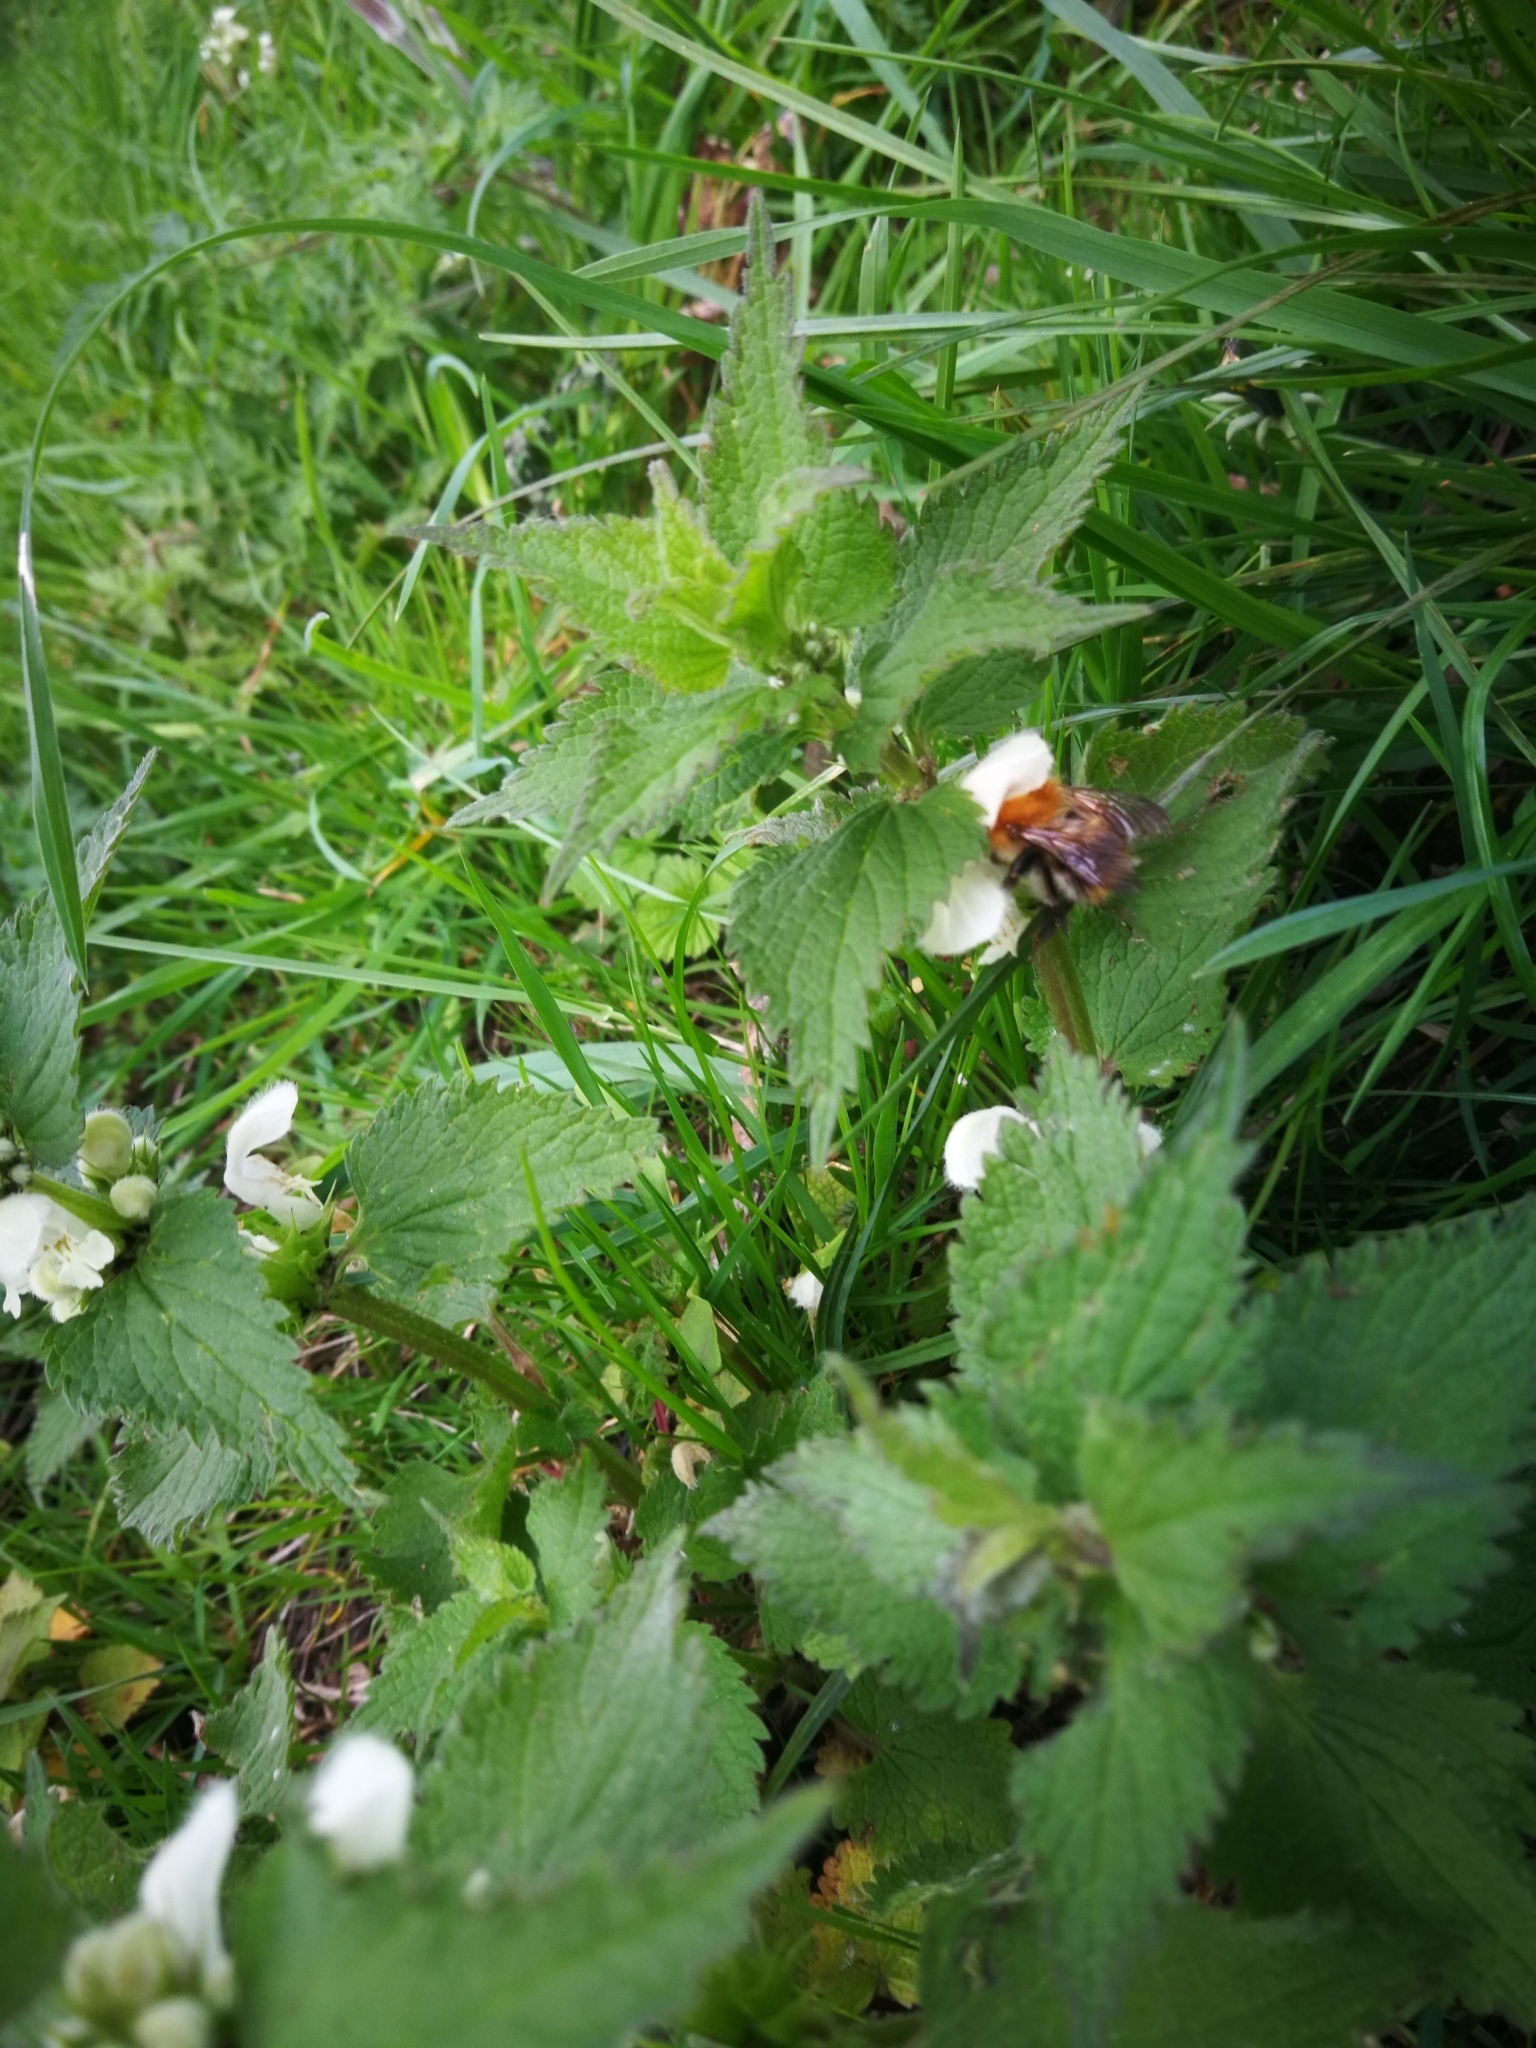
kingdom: Plantae
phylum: Tracheophyta
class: Magnoliopsida
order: Lamiales
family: Lamiaceae
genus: Lamium
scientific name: Lamium album
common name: White dead-nettle
